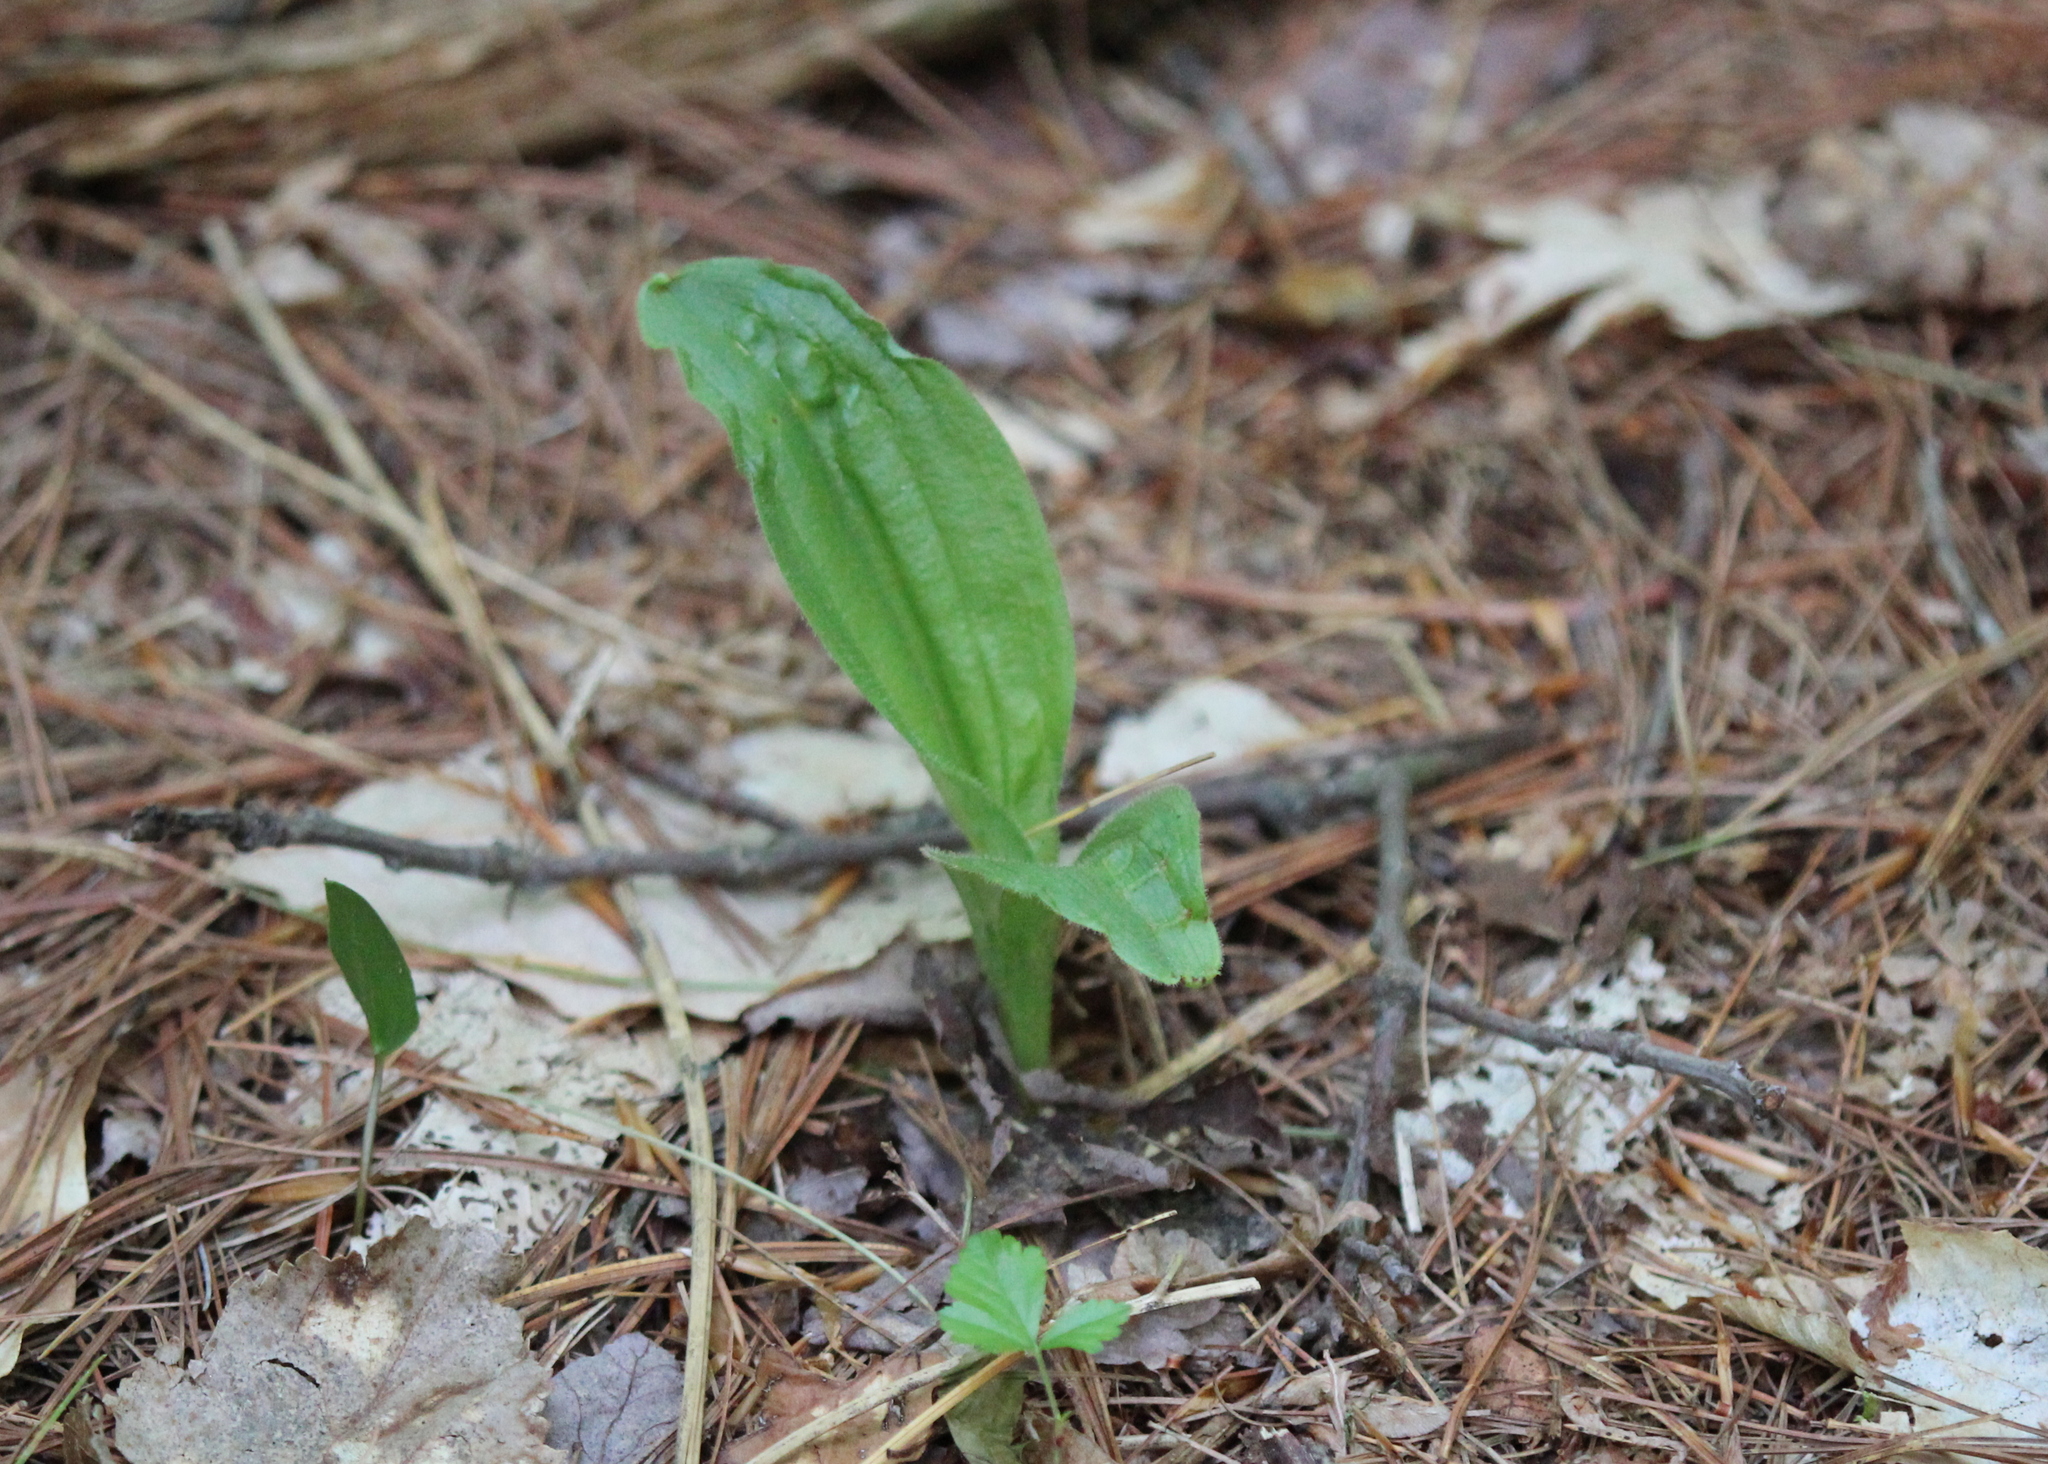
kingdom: Plantae
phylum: Tracheophyta
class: Liliopsida
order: Asparagales
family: Orchidaceae
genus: Cypripedium
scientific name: Cypripedium acaule
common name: Pink lady's-slipper
